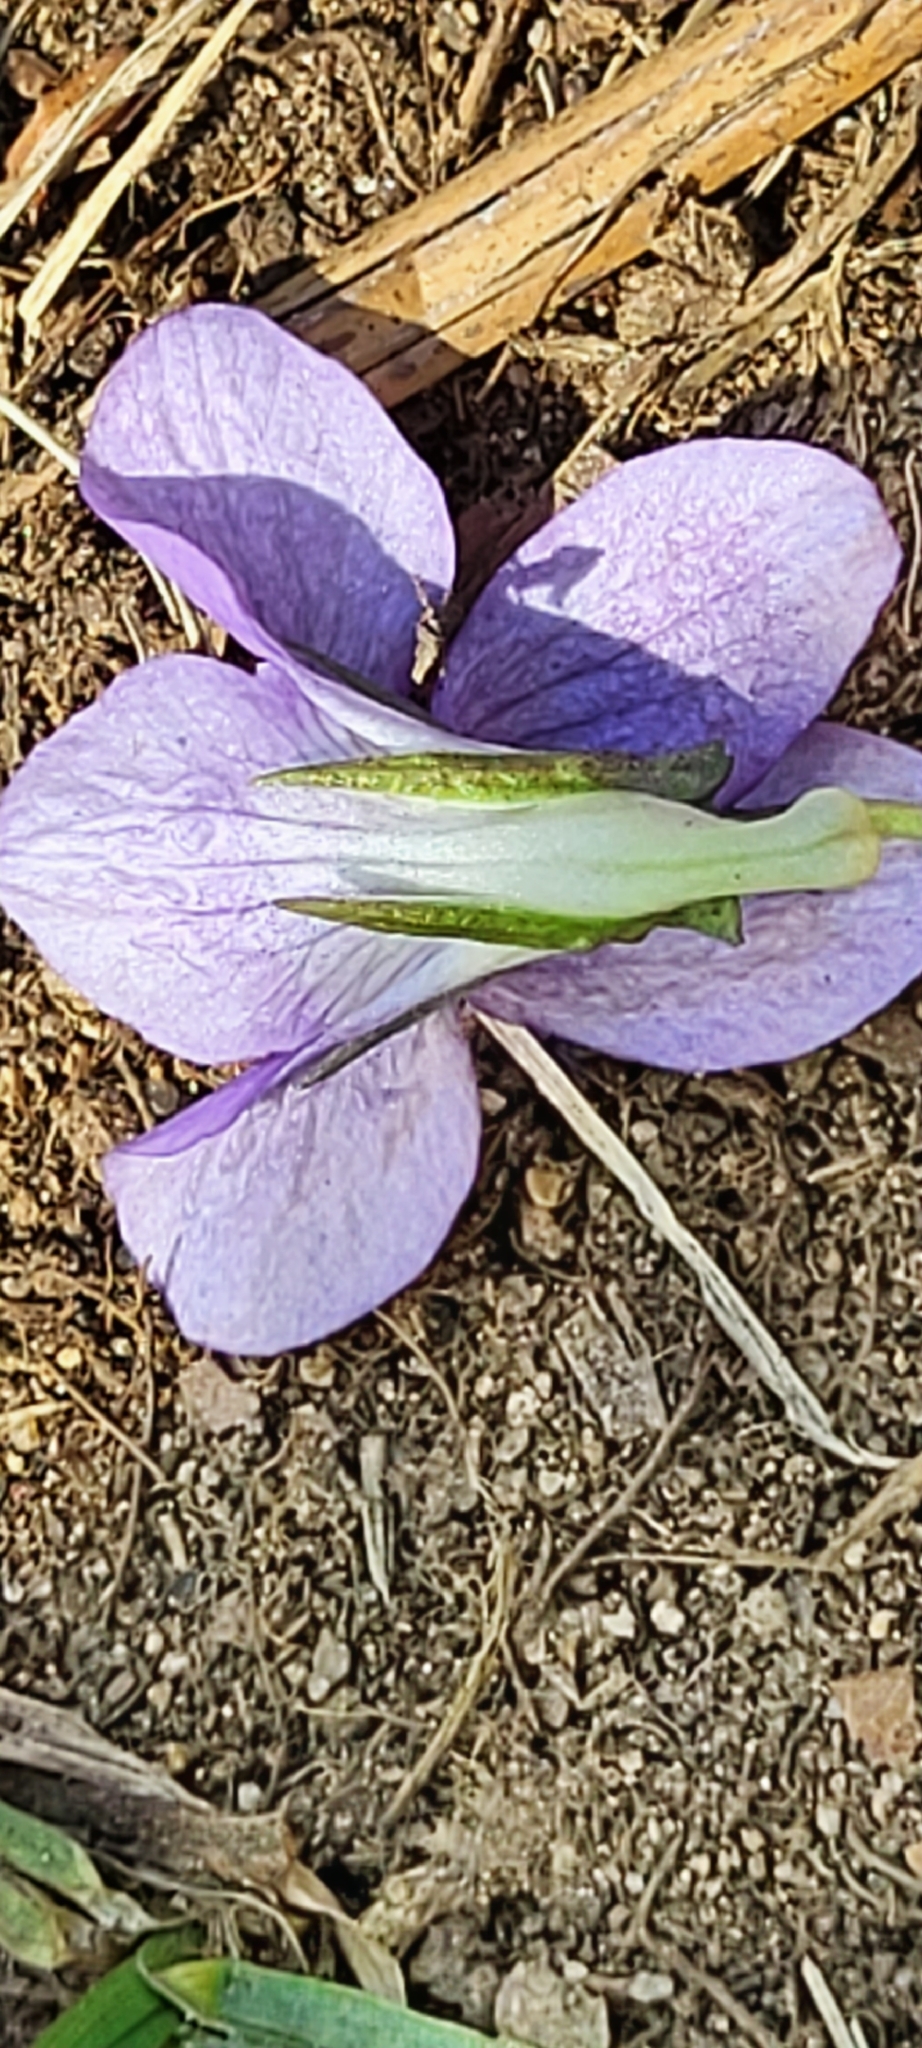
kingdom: Plantae
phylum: Tracheophyta
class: Magnoliopsida
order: Malpighiales
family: Violaceae
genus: Viola
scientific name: Viola riviniana
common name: Common dog-violet
